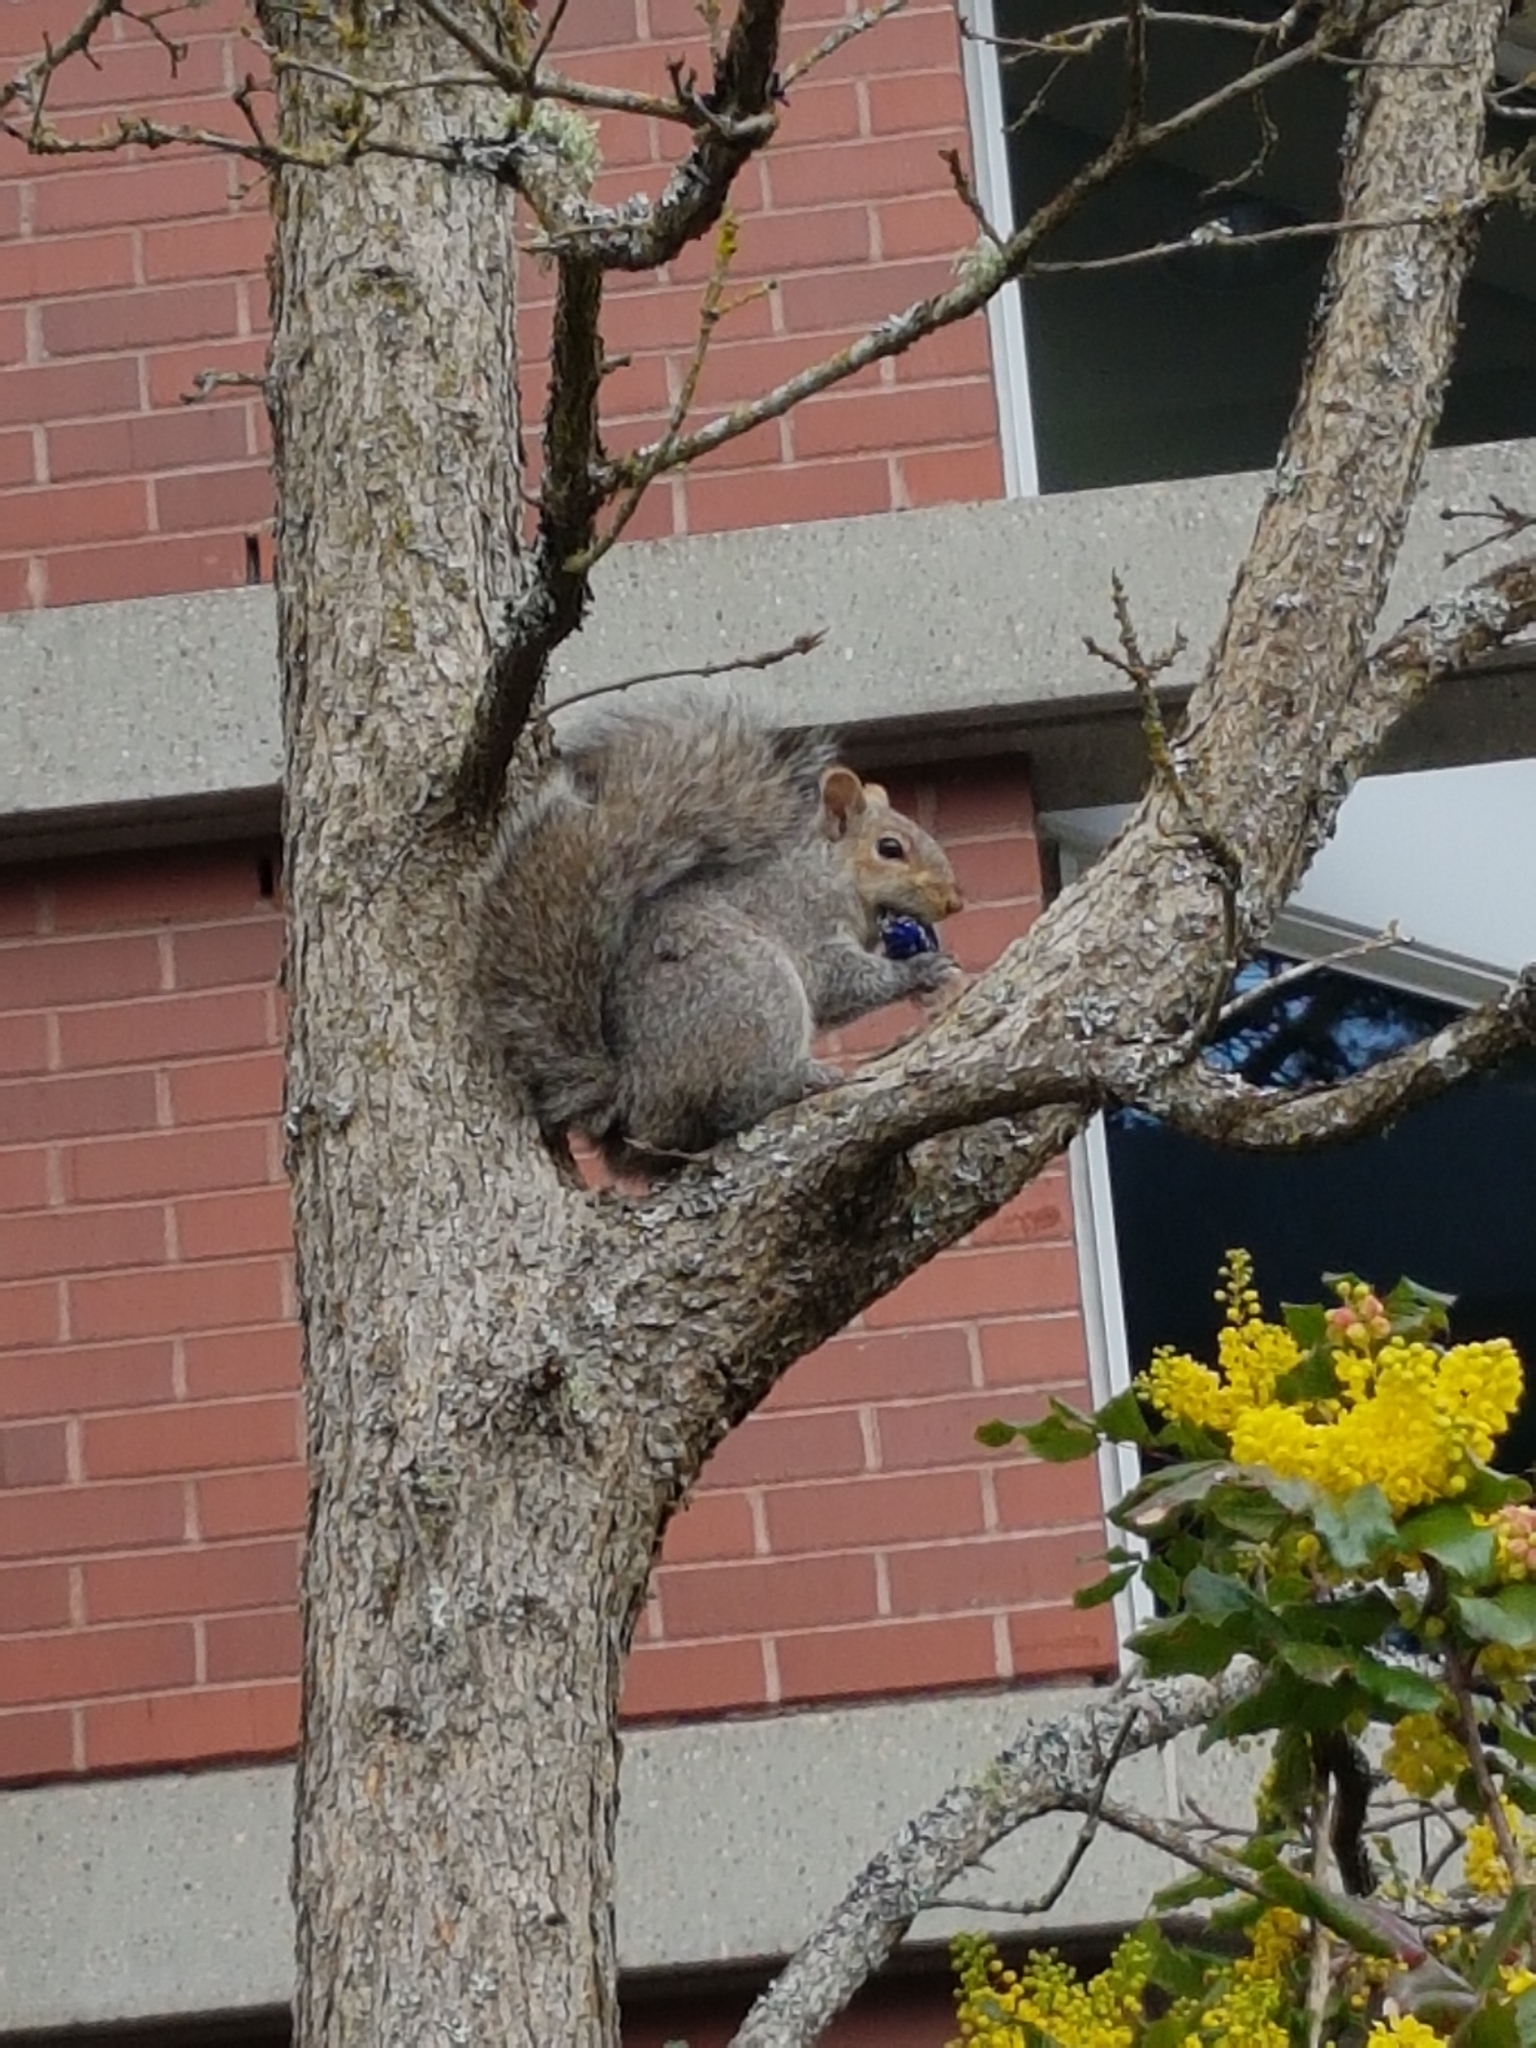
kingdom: Animalia
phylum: Chordata
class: Mammalia
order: Rodentia
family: Sciuridae
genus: Sciurus
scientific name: Sciurus carolinensis
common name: Eastern gray squirrel
